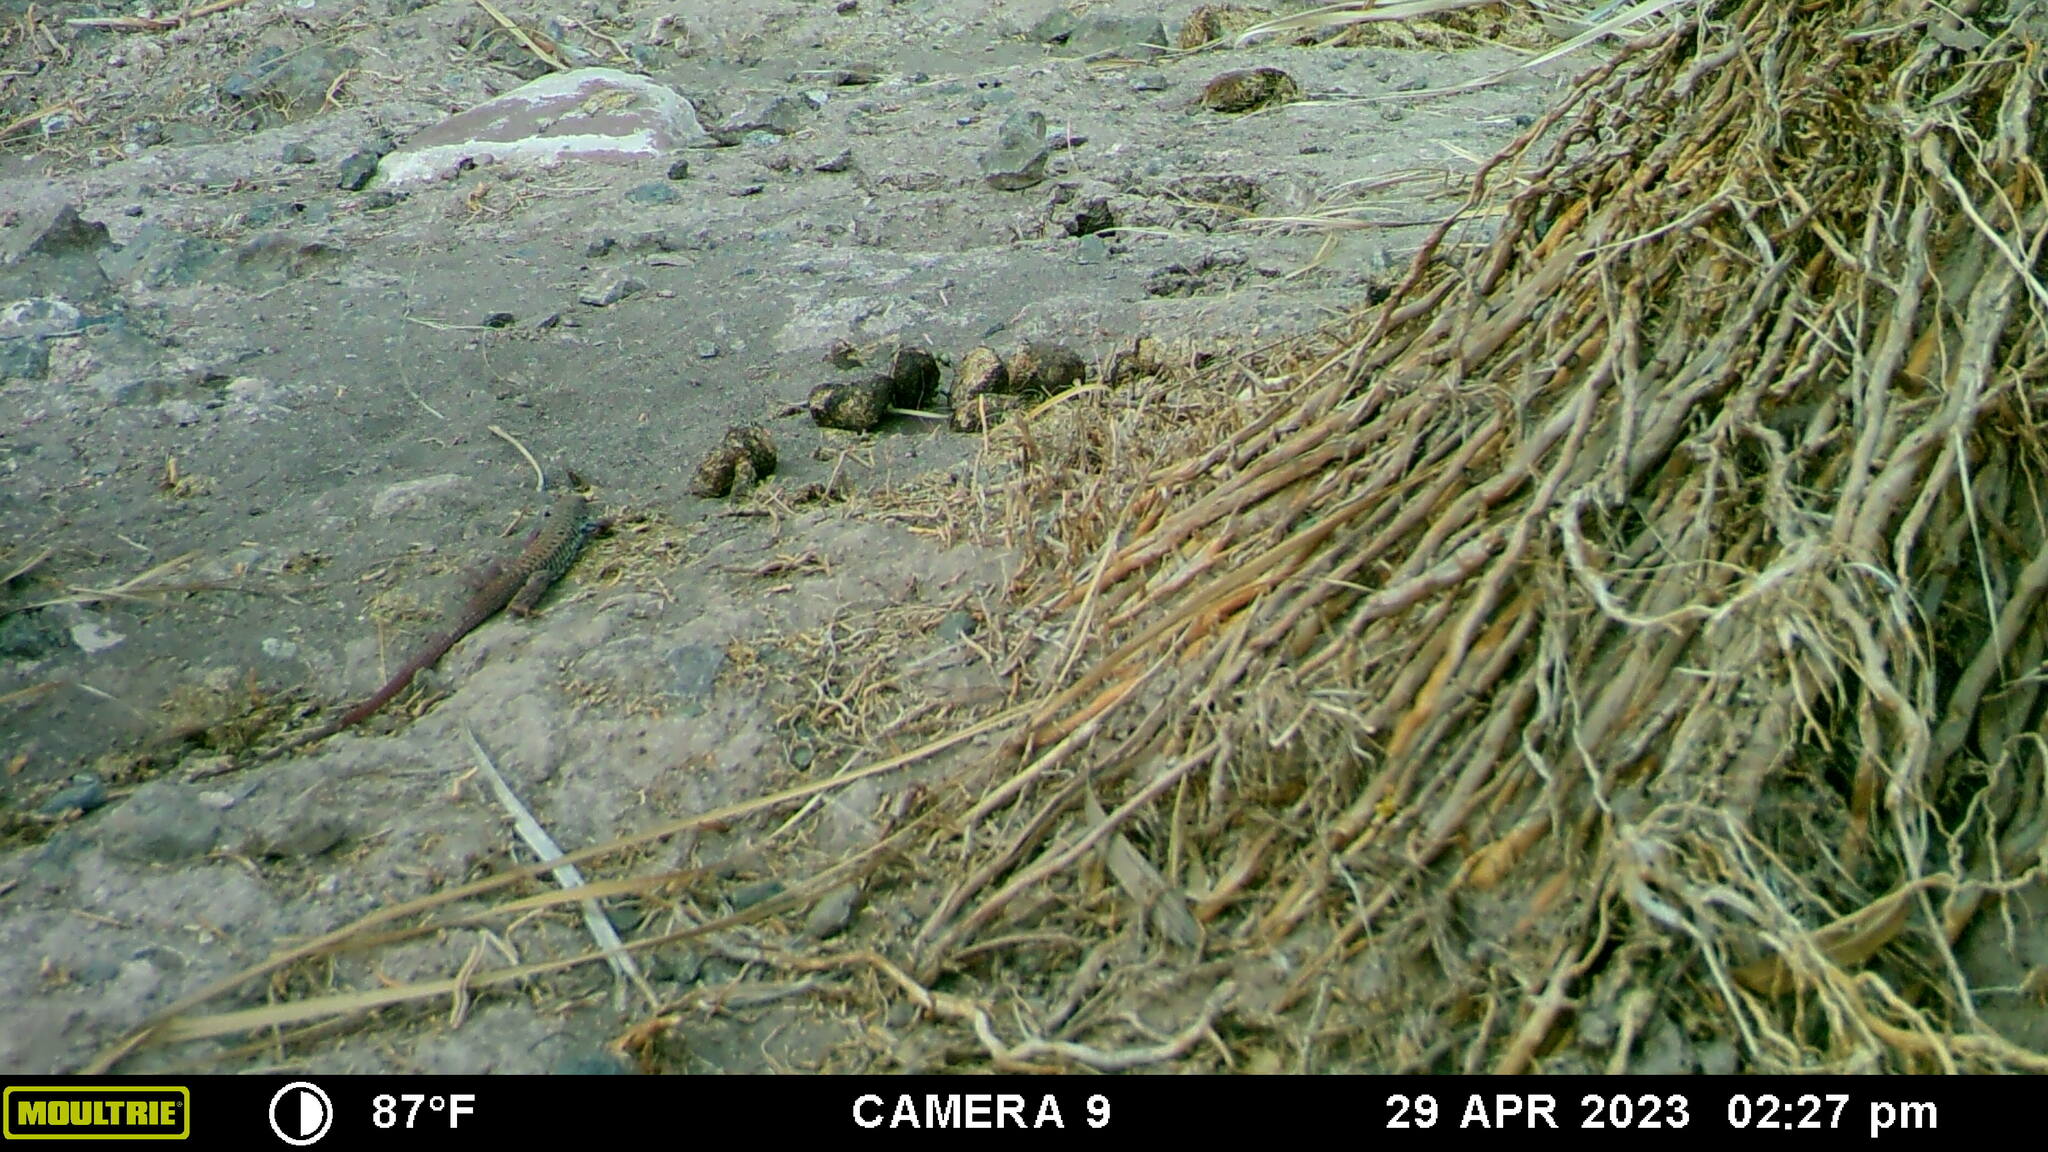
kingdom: Animalia
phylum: Chordata
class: Squamata
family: Teiidae
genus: Aspidoscelis
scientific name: Aspidoscelis tigris
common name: Tiger whiptail
